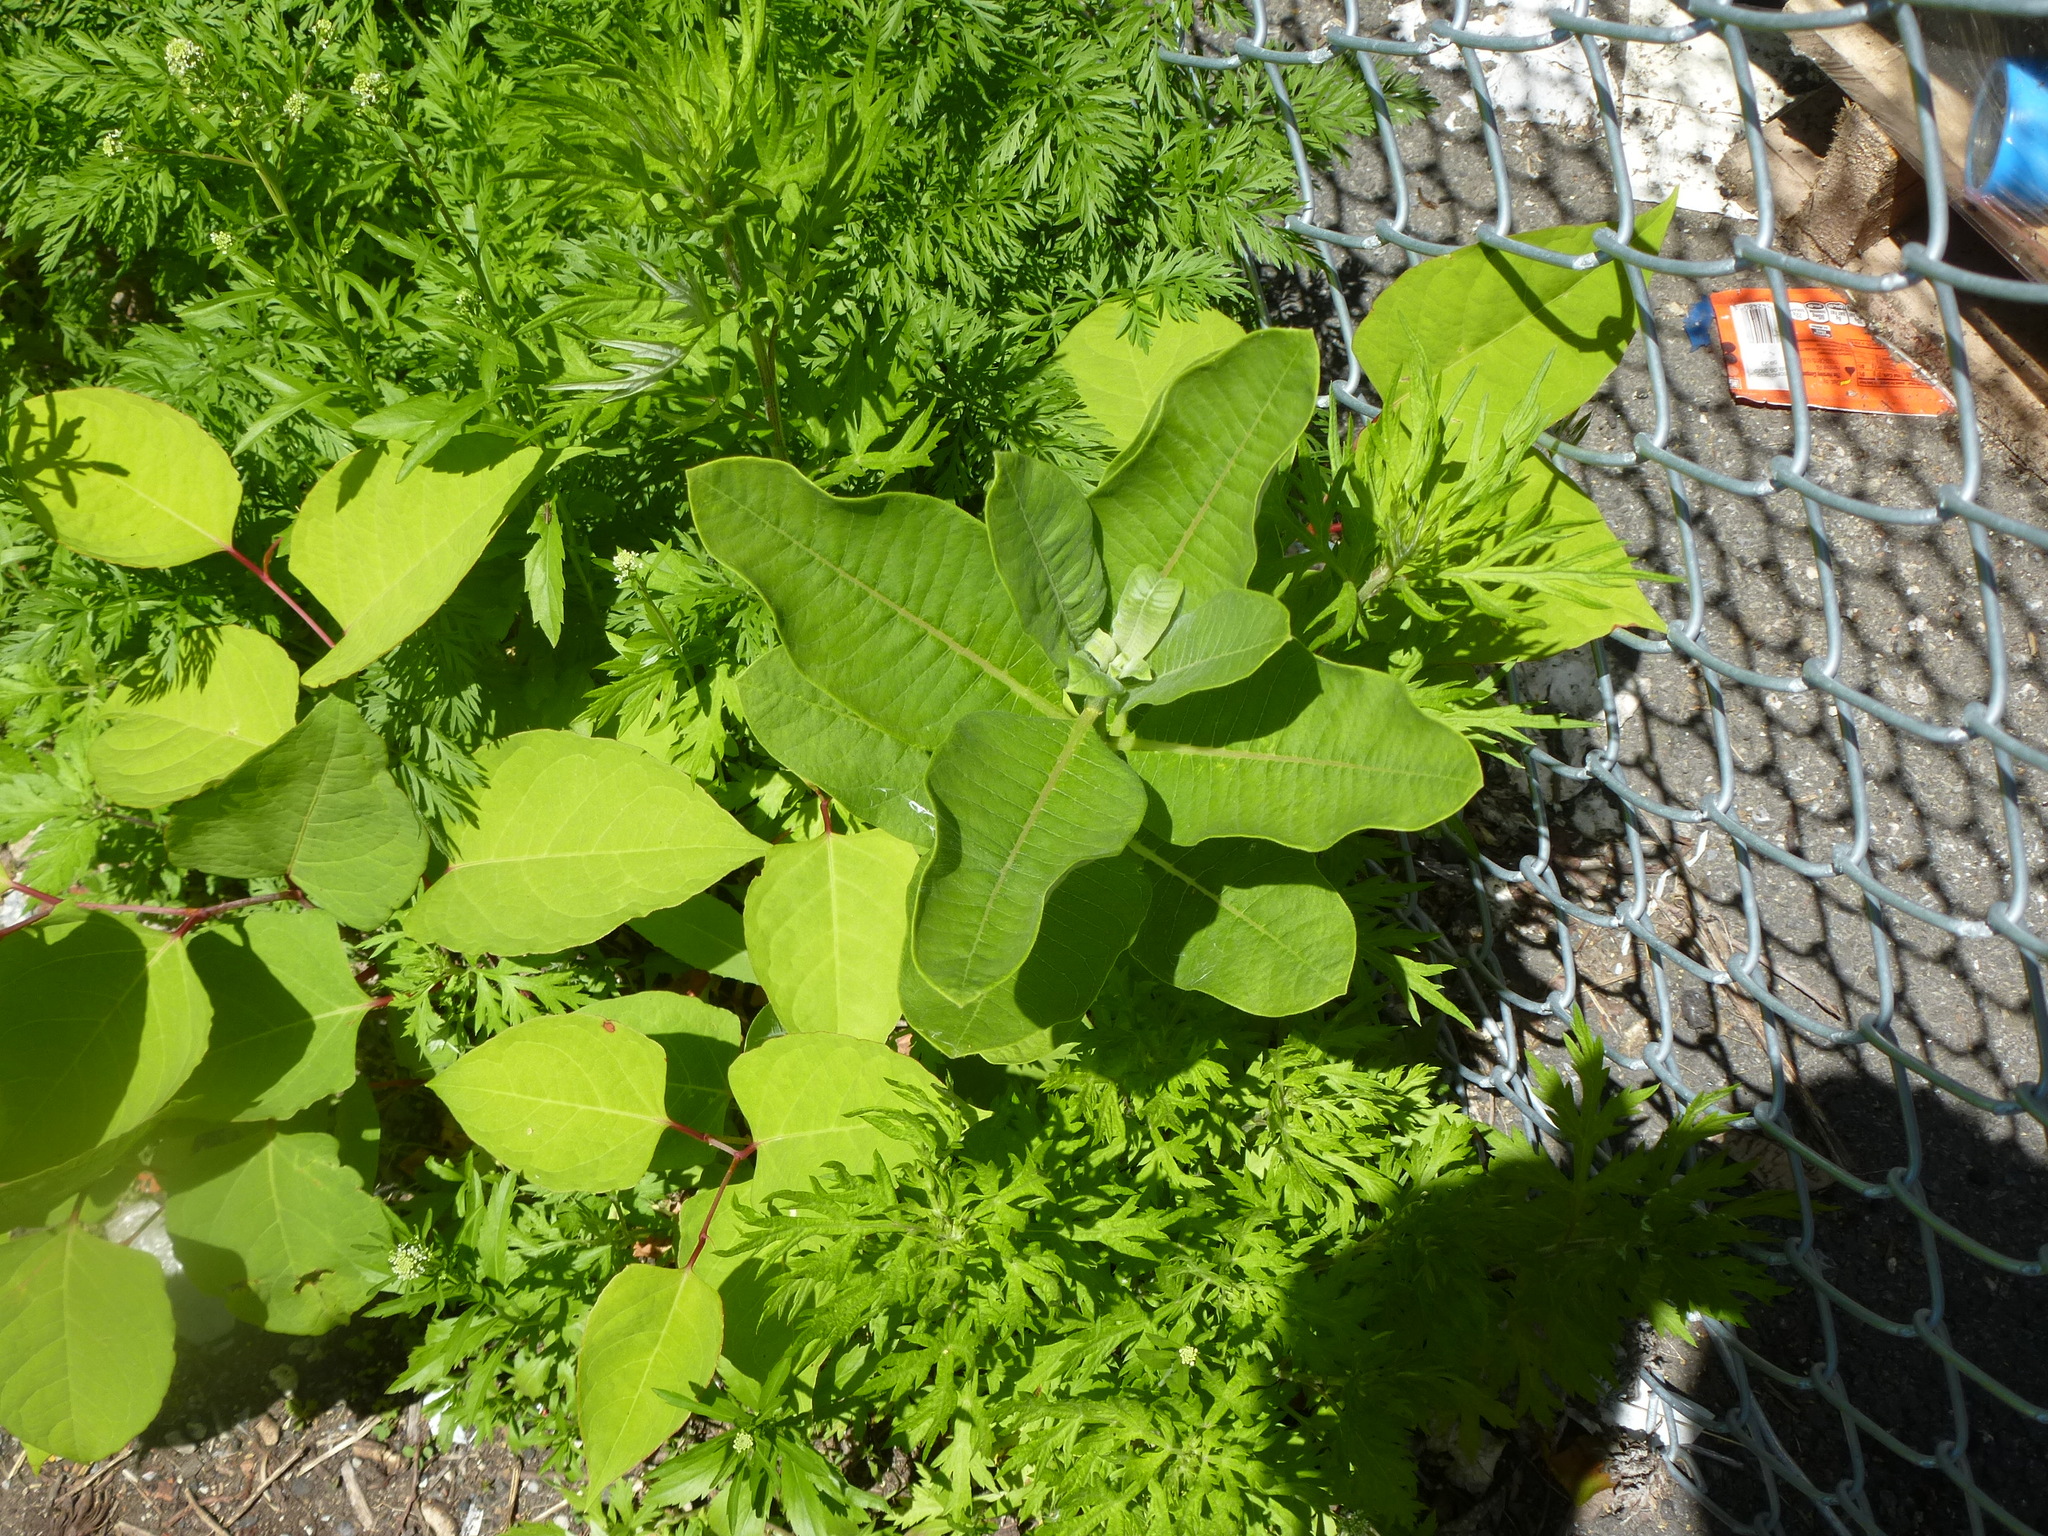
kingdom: Plantae
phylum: Tracheophyta
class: Magnoliopsida
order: Gentianales
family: Apocynaceae
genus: Asclepias
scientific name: Asclepias syriaca
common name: Common milkweed
